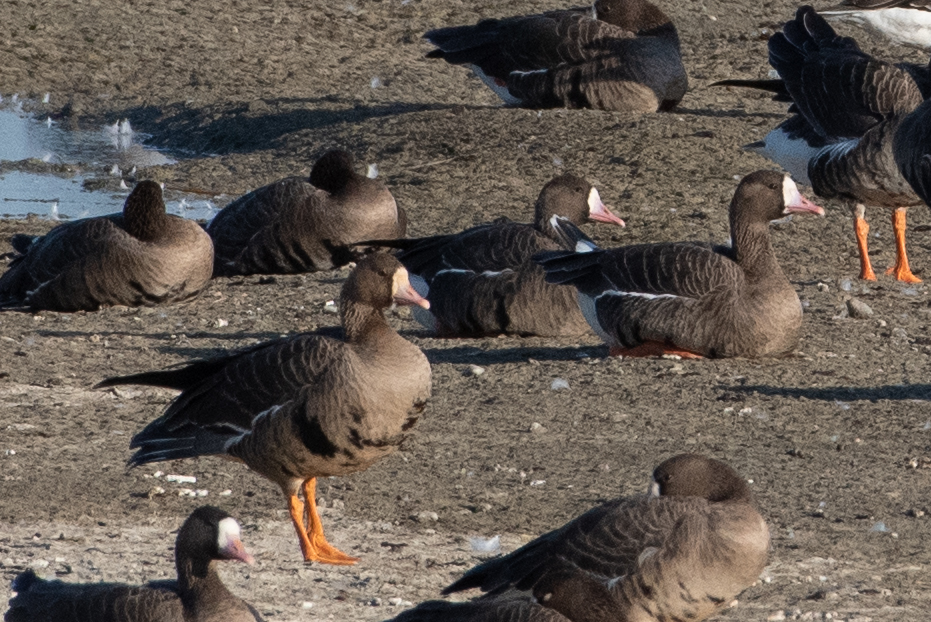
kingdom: Animalia
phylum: Chordata
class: Aves
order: Anseriformes
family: Anatidae
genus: Anser
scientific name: Anser albifrons
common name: Greater white-fronted goose
